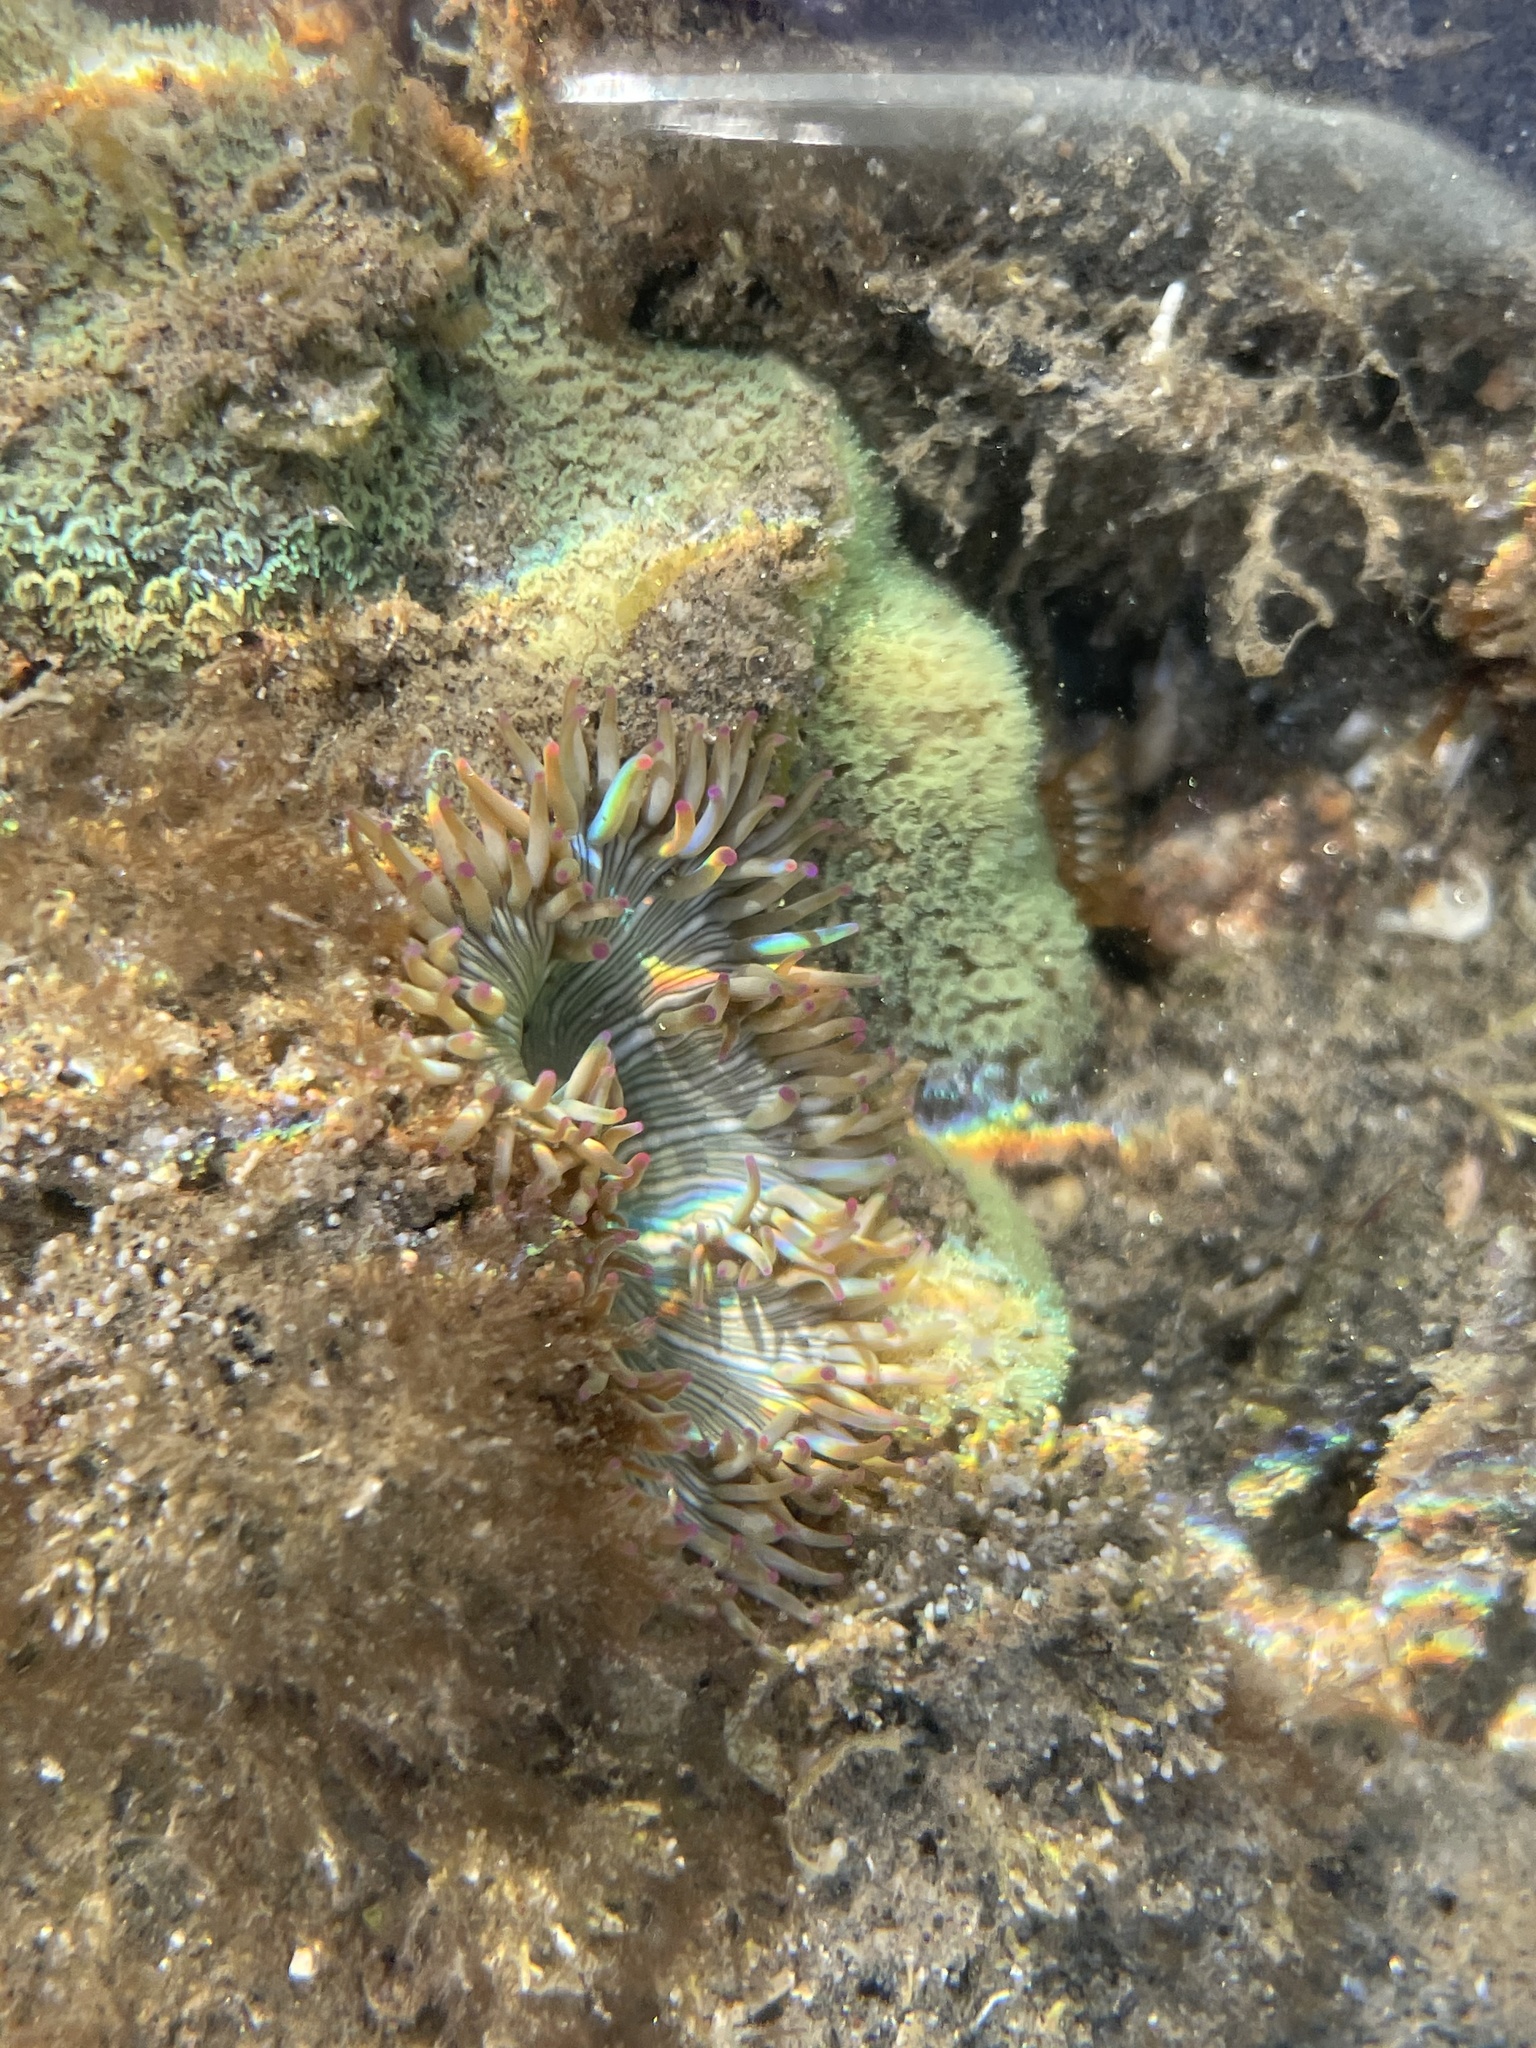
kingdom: Animalia
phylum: Cnidaria
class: Anthozoa
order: Actiniaria
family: Actiniidae
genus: Phialoba
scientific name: Phialoba steinbecki
